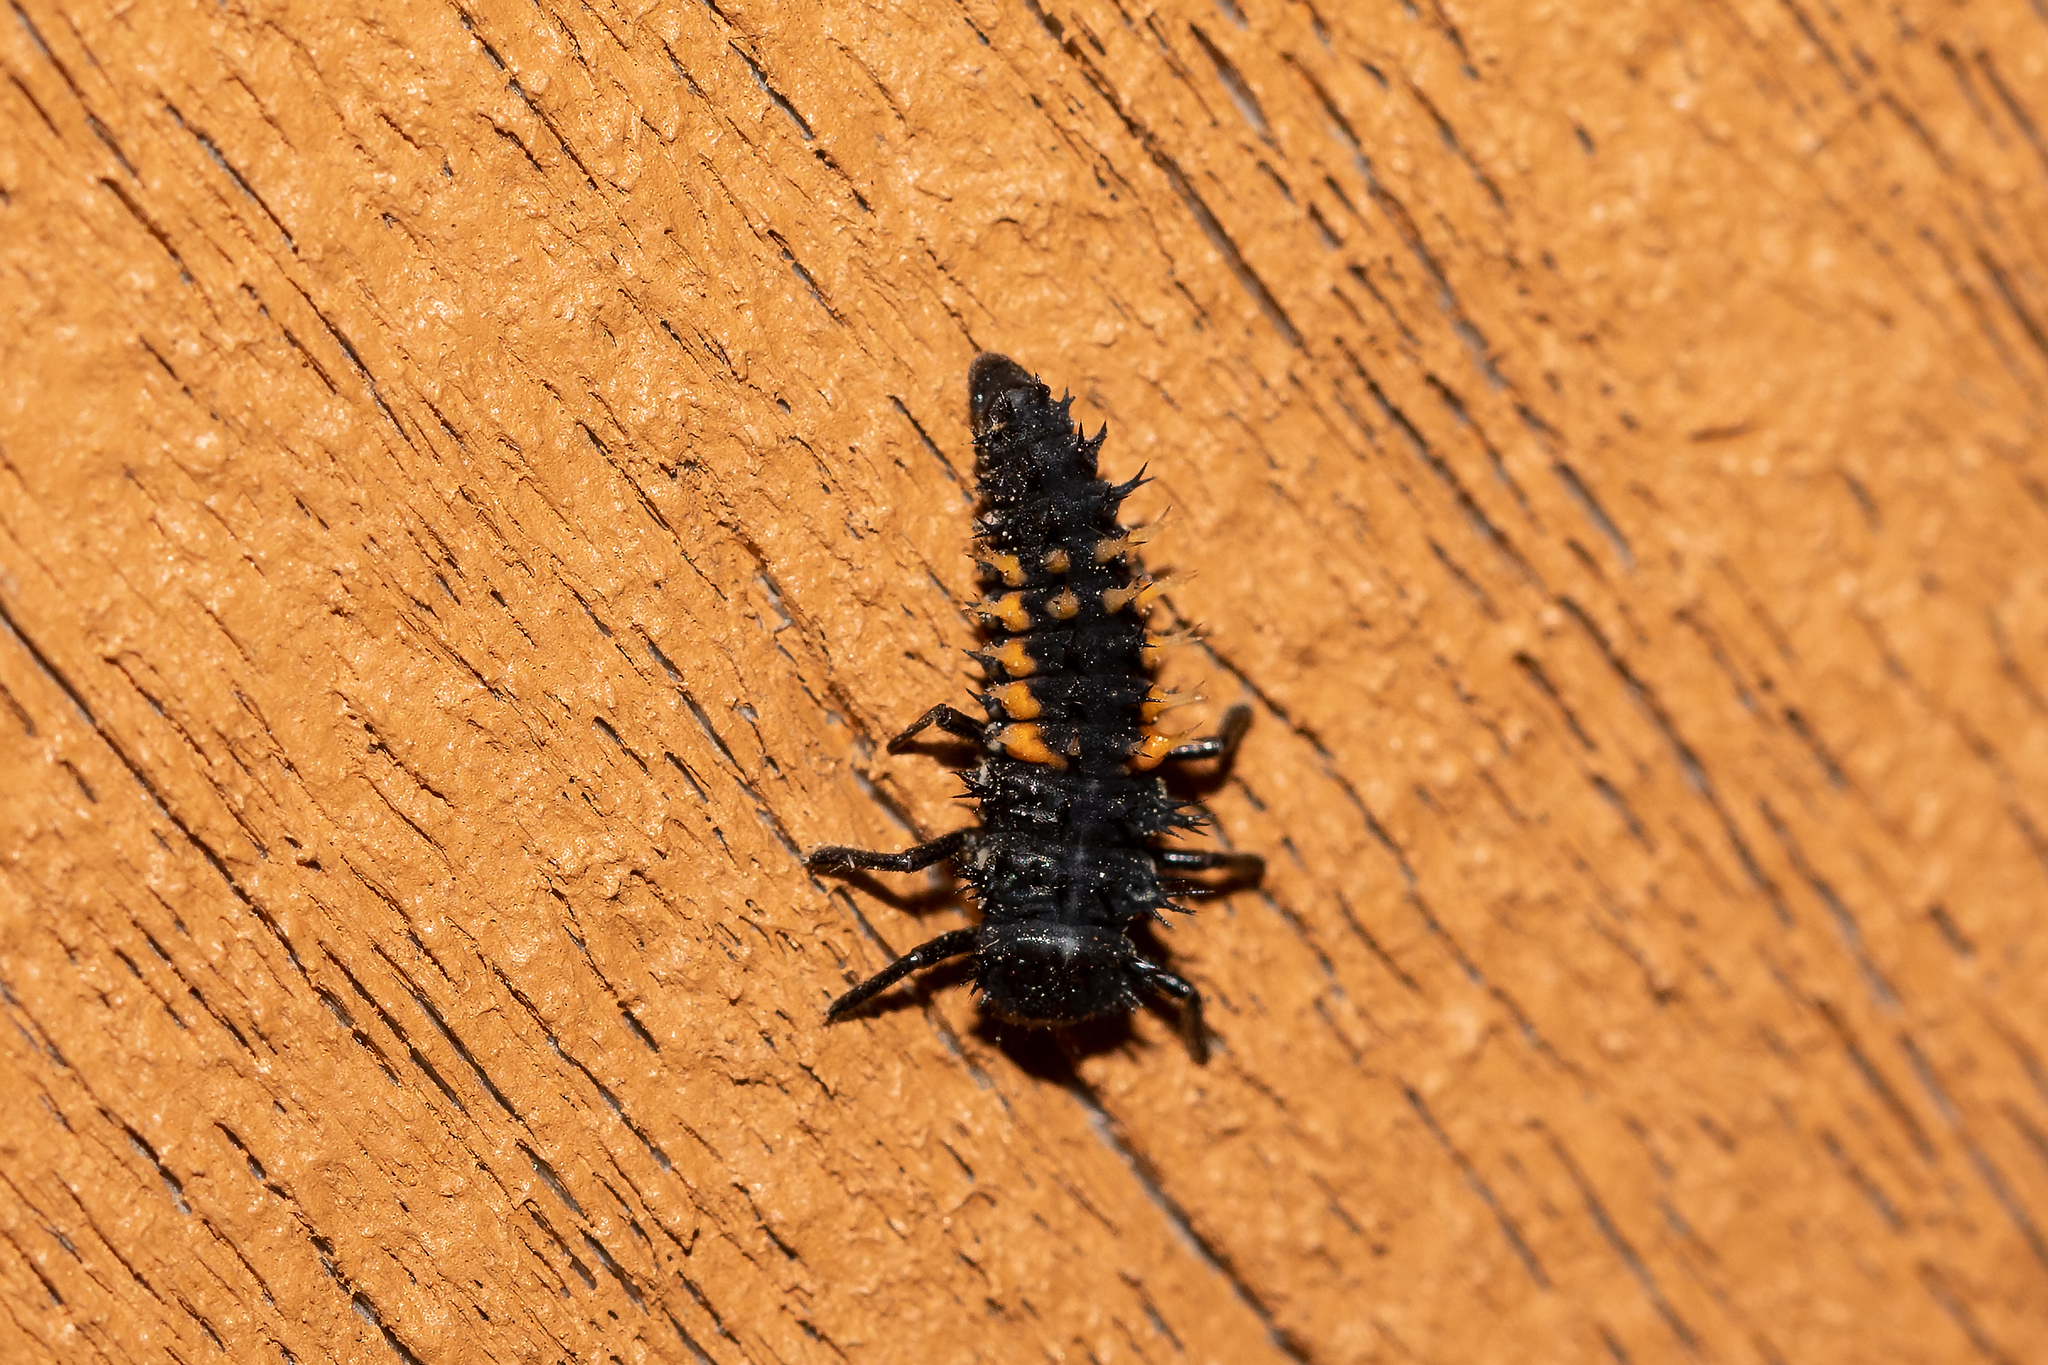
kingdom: Animalia
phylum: Arthropoda
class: Insecta
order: Coleoptera
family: Coccinellidae
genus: Harmonia
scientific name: Harmonia axyridis
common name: Harlequin ladybird
